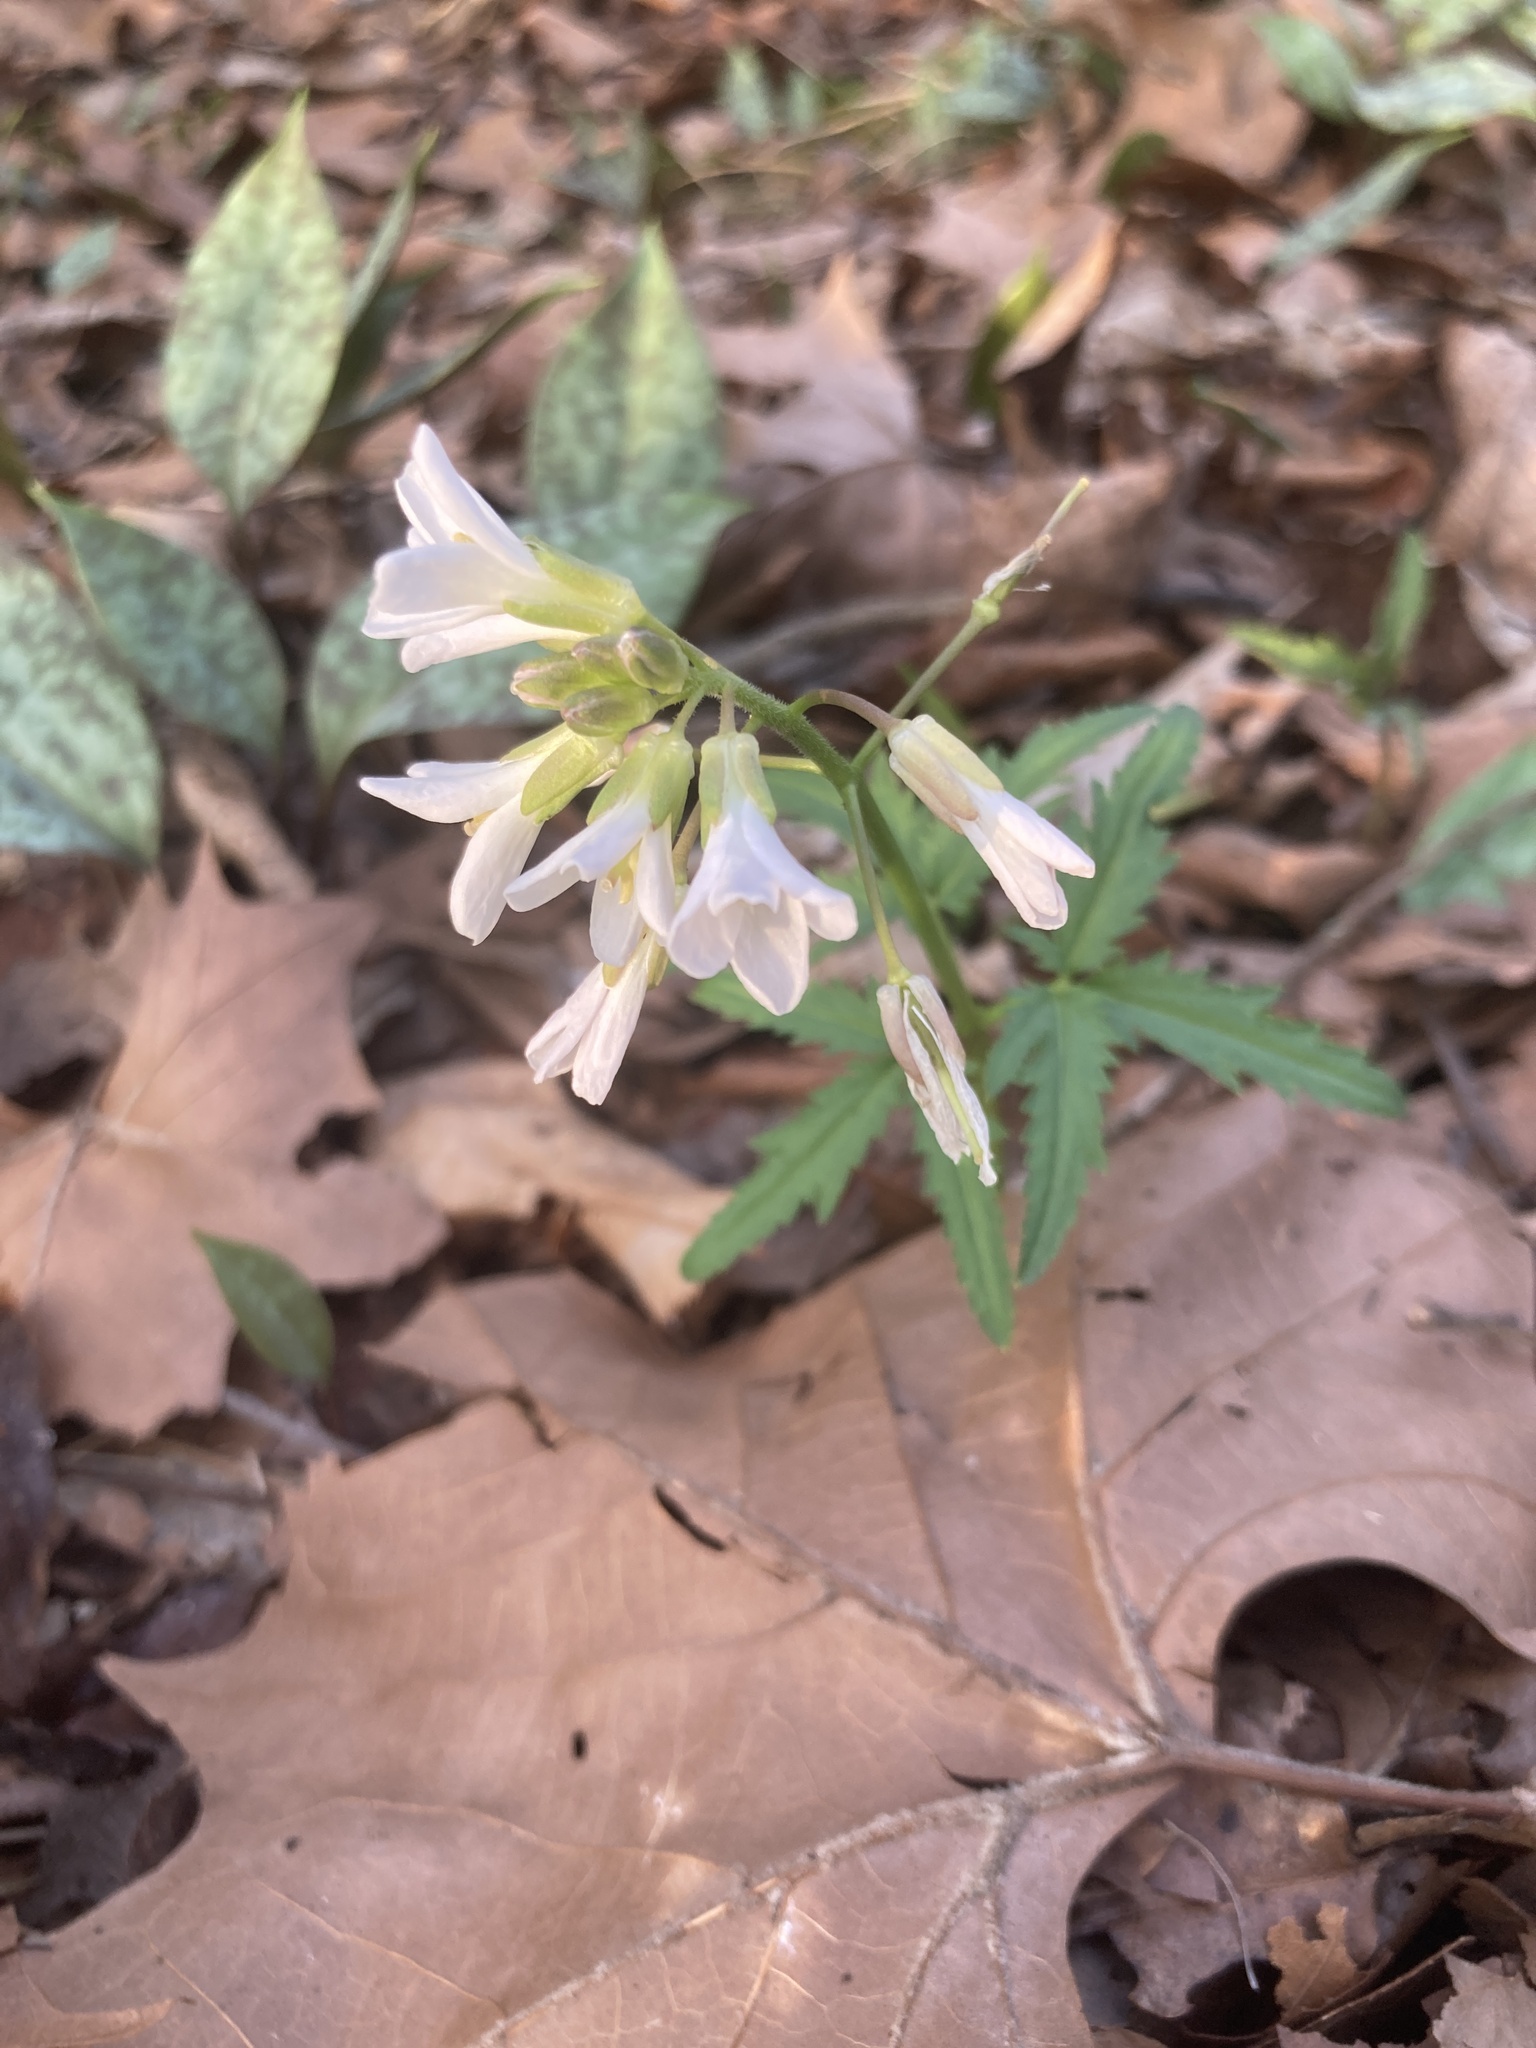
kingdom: Plantae
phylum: Tracheophyta
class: Magnoliopsida
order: Brassicales
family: Brassicaceae
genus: Cardamine
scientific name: Cardamine concatenata
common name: Cut-leaf toothcup
